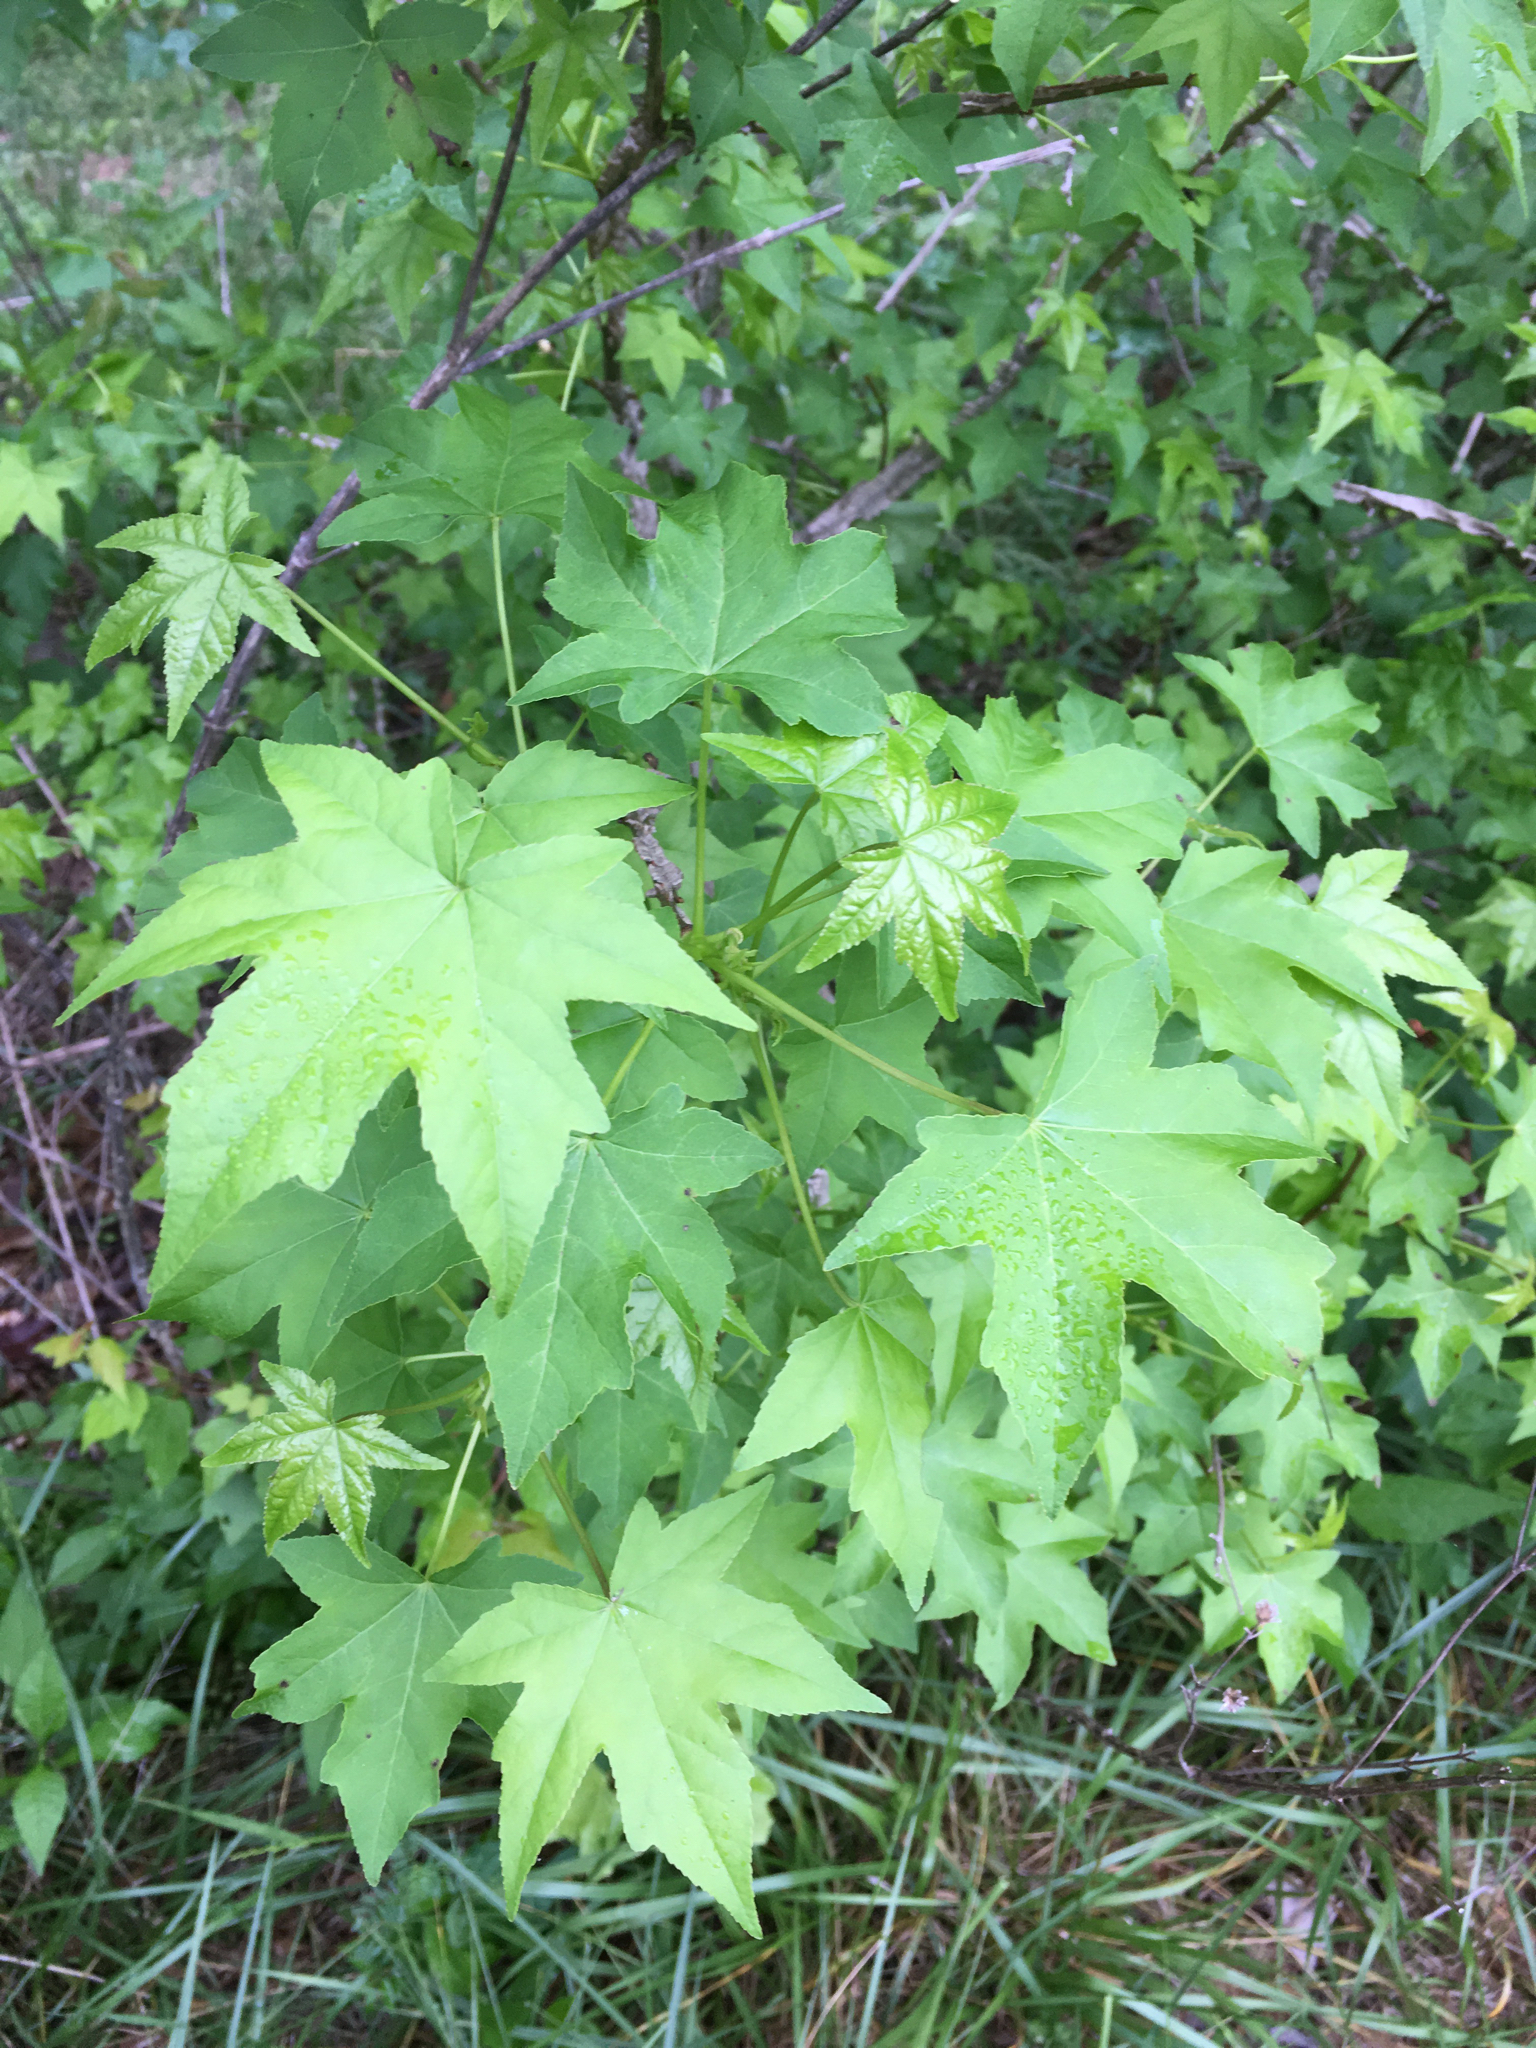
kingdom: Plantae
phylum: Tracheophyta
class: Magnoliopsida
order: Saxifragales
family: Altingiaceae
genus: Liquidambar
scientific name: Liquidambar styraciflua
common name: Sweet gum
